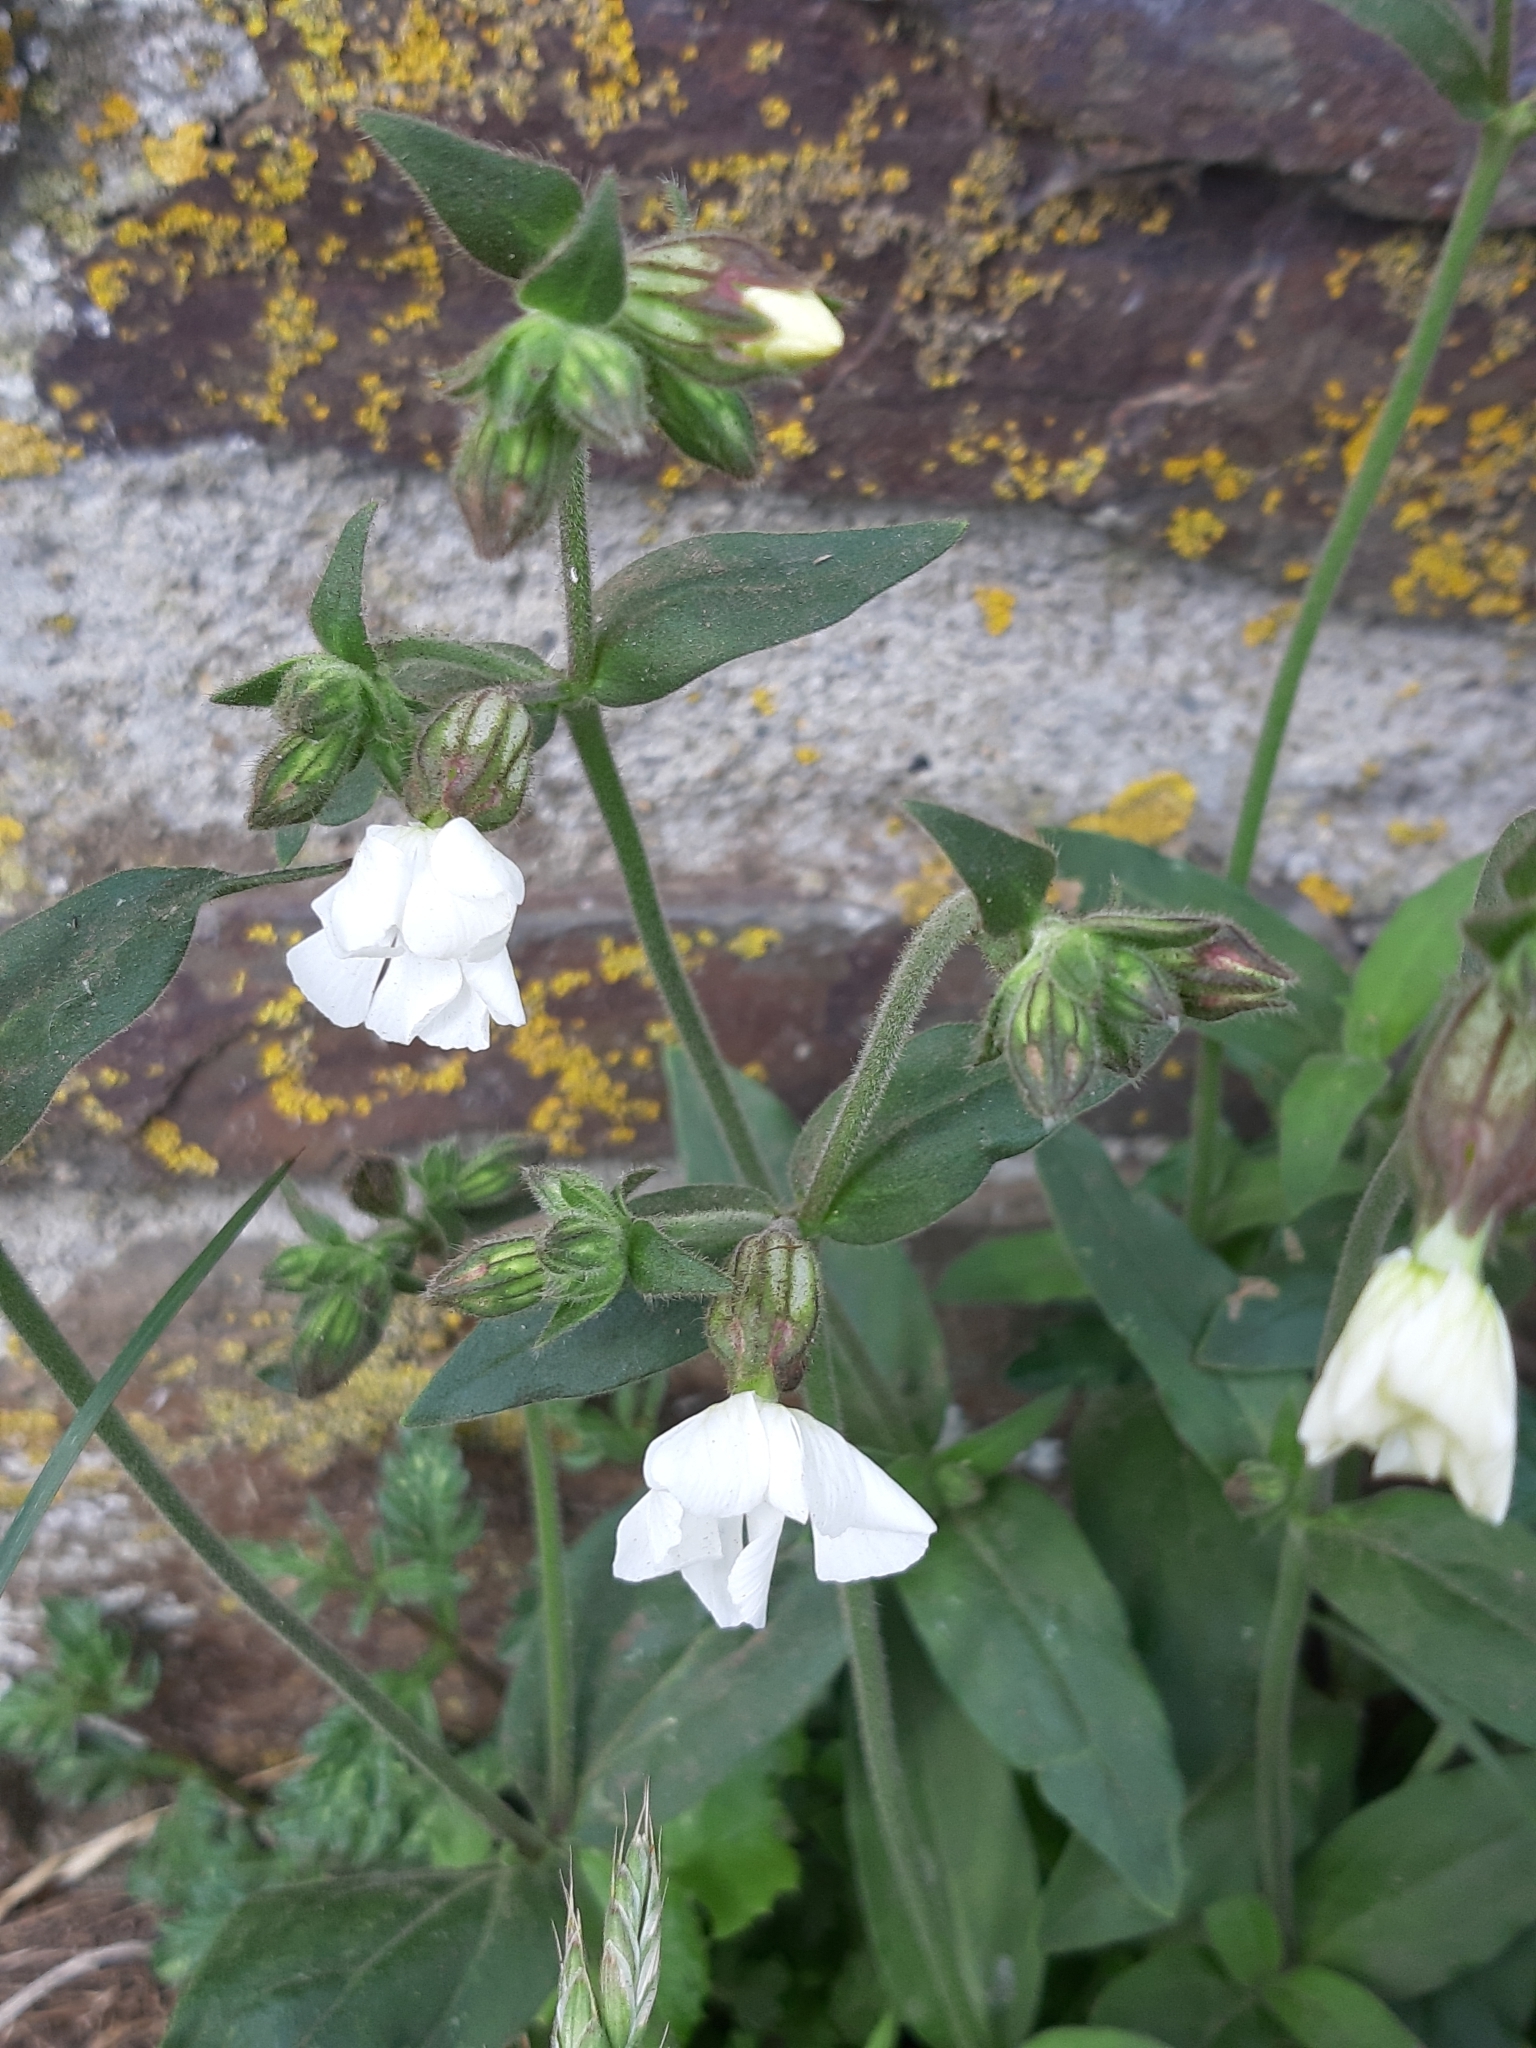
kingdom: Plantae
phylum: Tracheophyta
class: Magnoliopsida
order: Caryophyllales
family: Caryophyllaceae
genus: Silene
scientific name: Silene latifolia
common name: White campion
